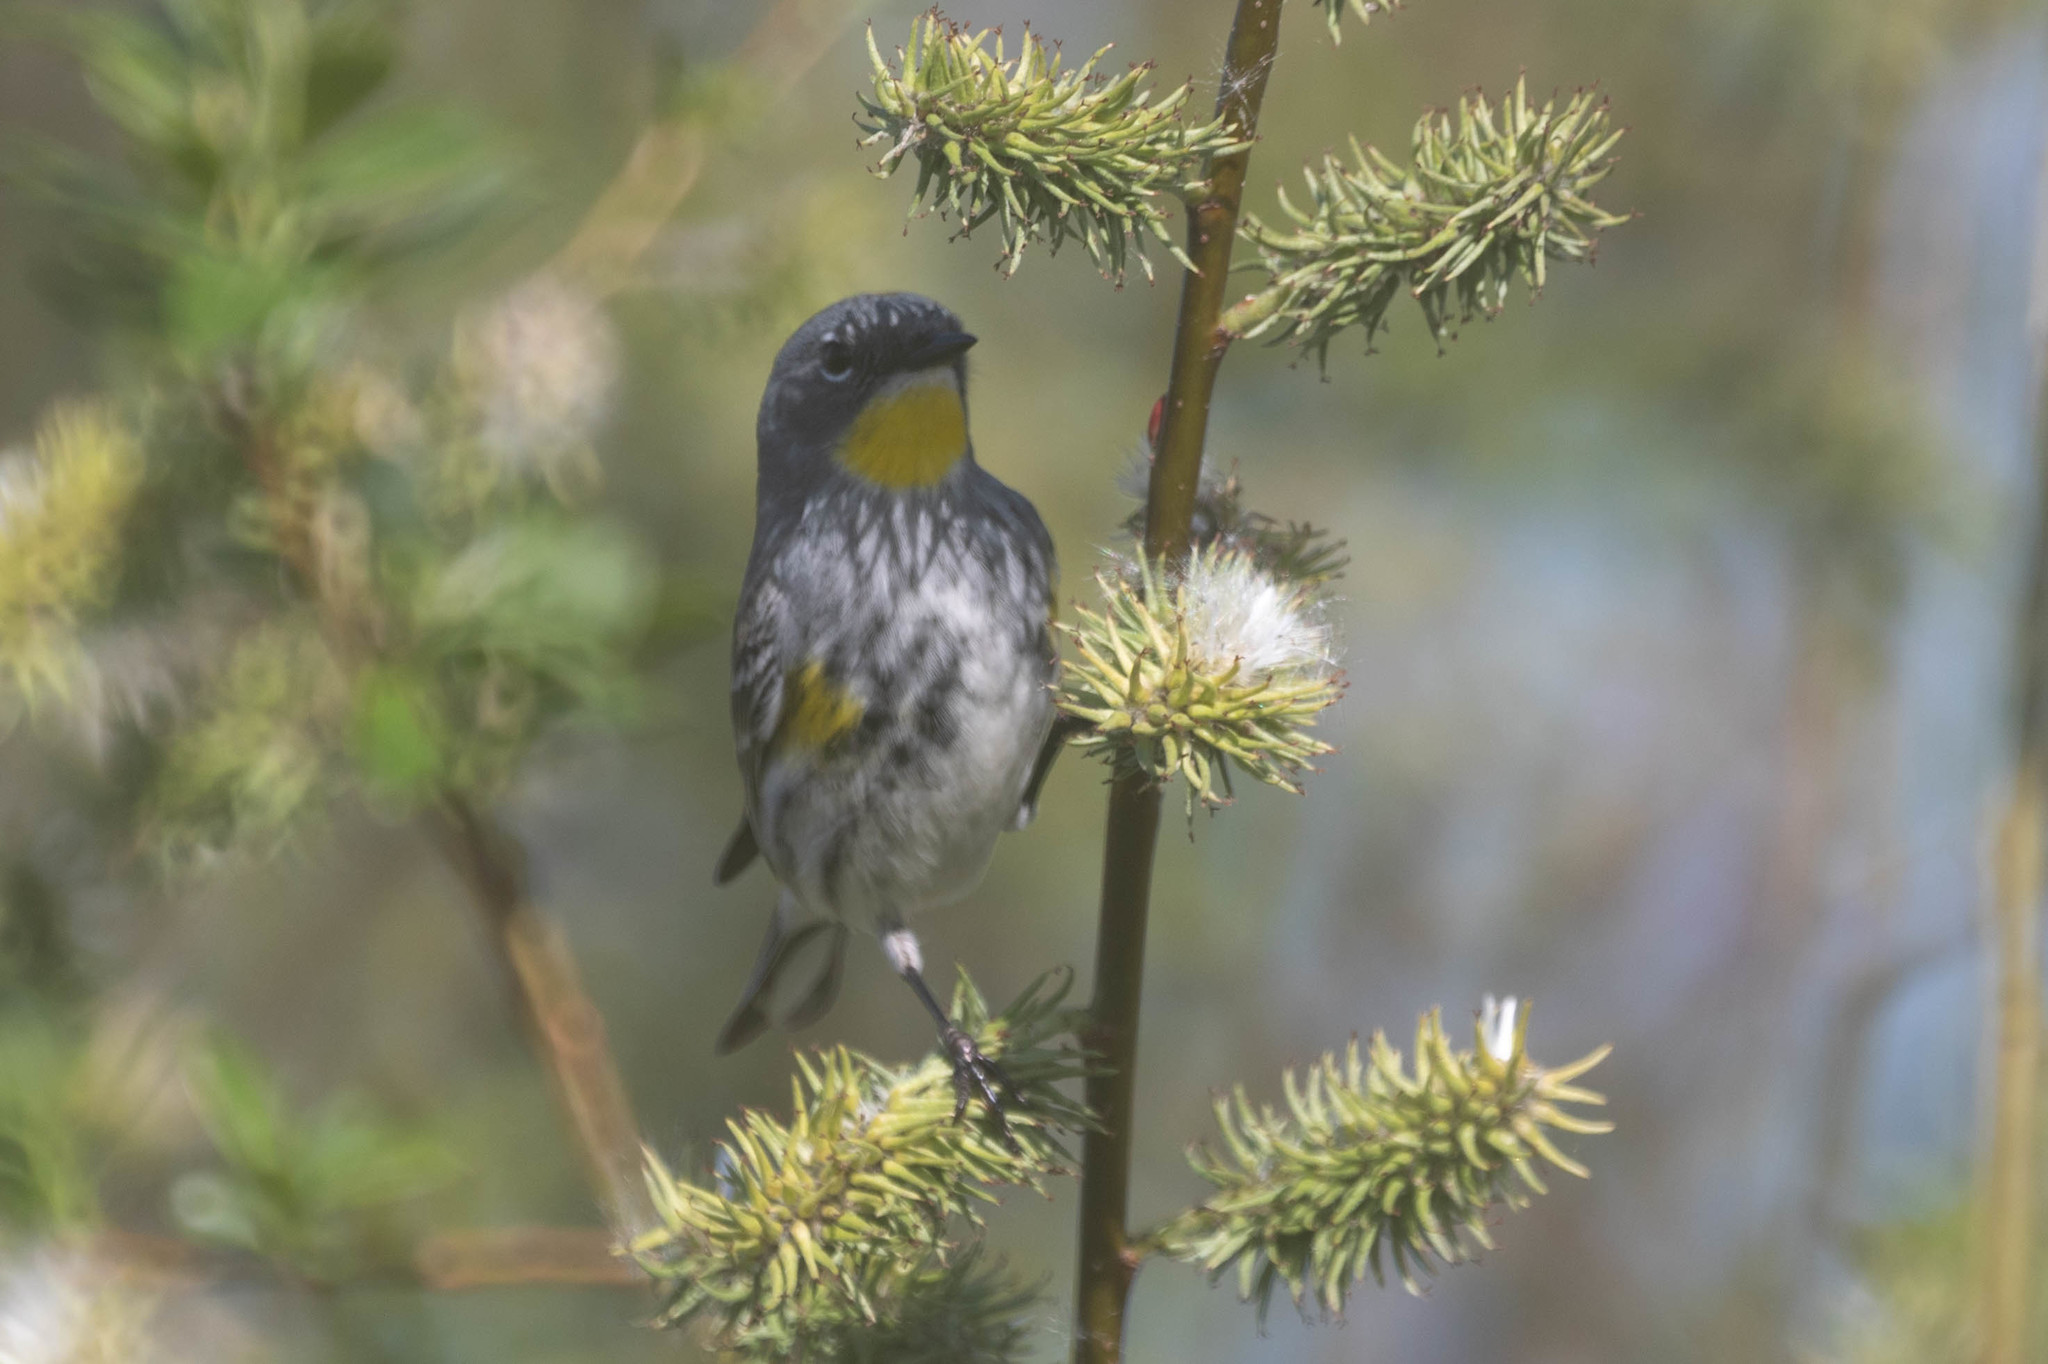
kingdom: Animalia
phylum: Chordata
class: Aves
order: Passeriformes
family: Parulidae
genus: Setophaga
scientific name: Setophaga coronata
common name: Myrtle warbler
